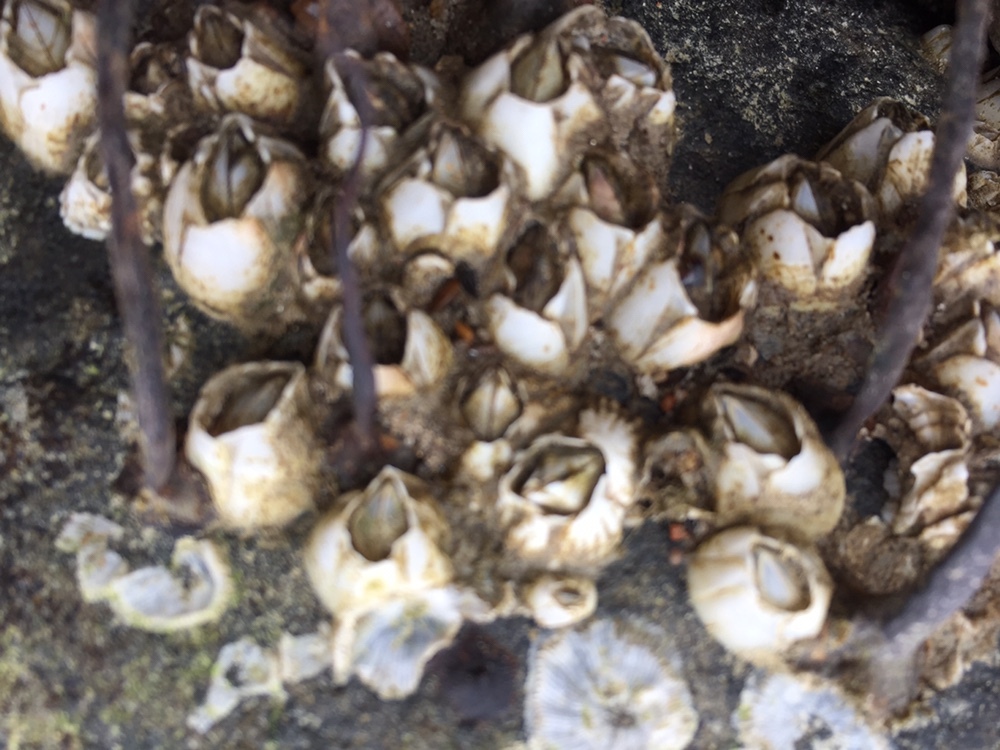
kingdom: Animalia
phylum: Arthropoda
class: Maxillopoda
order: Sessilia
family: Balanidae
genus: Amphibalanus
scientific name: Amphibalanus improvisus
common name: Bay barnacle
